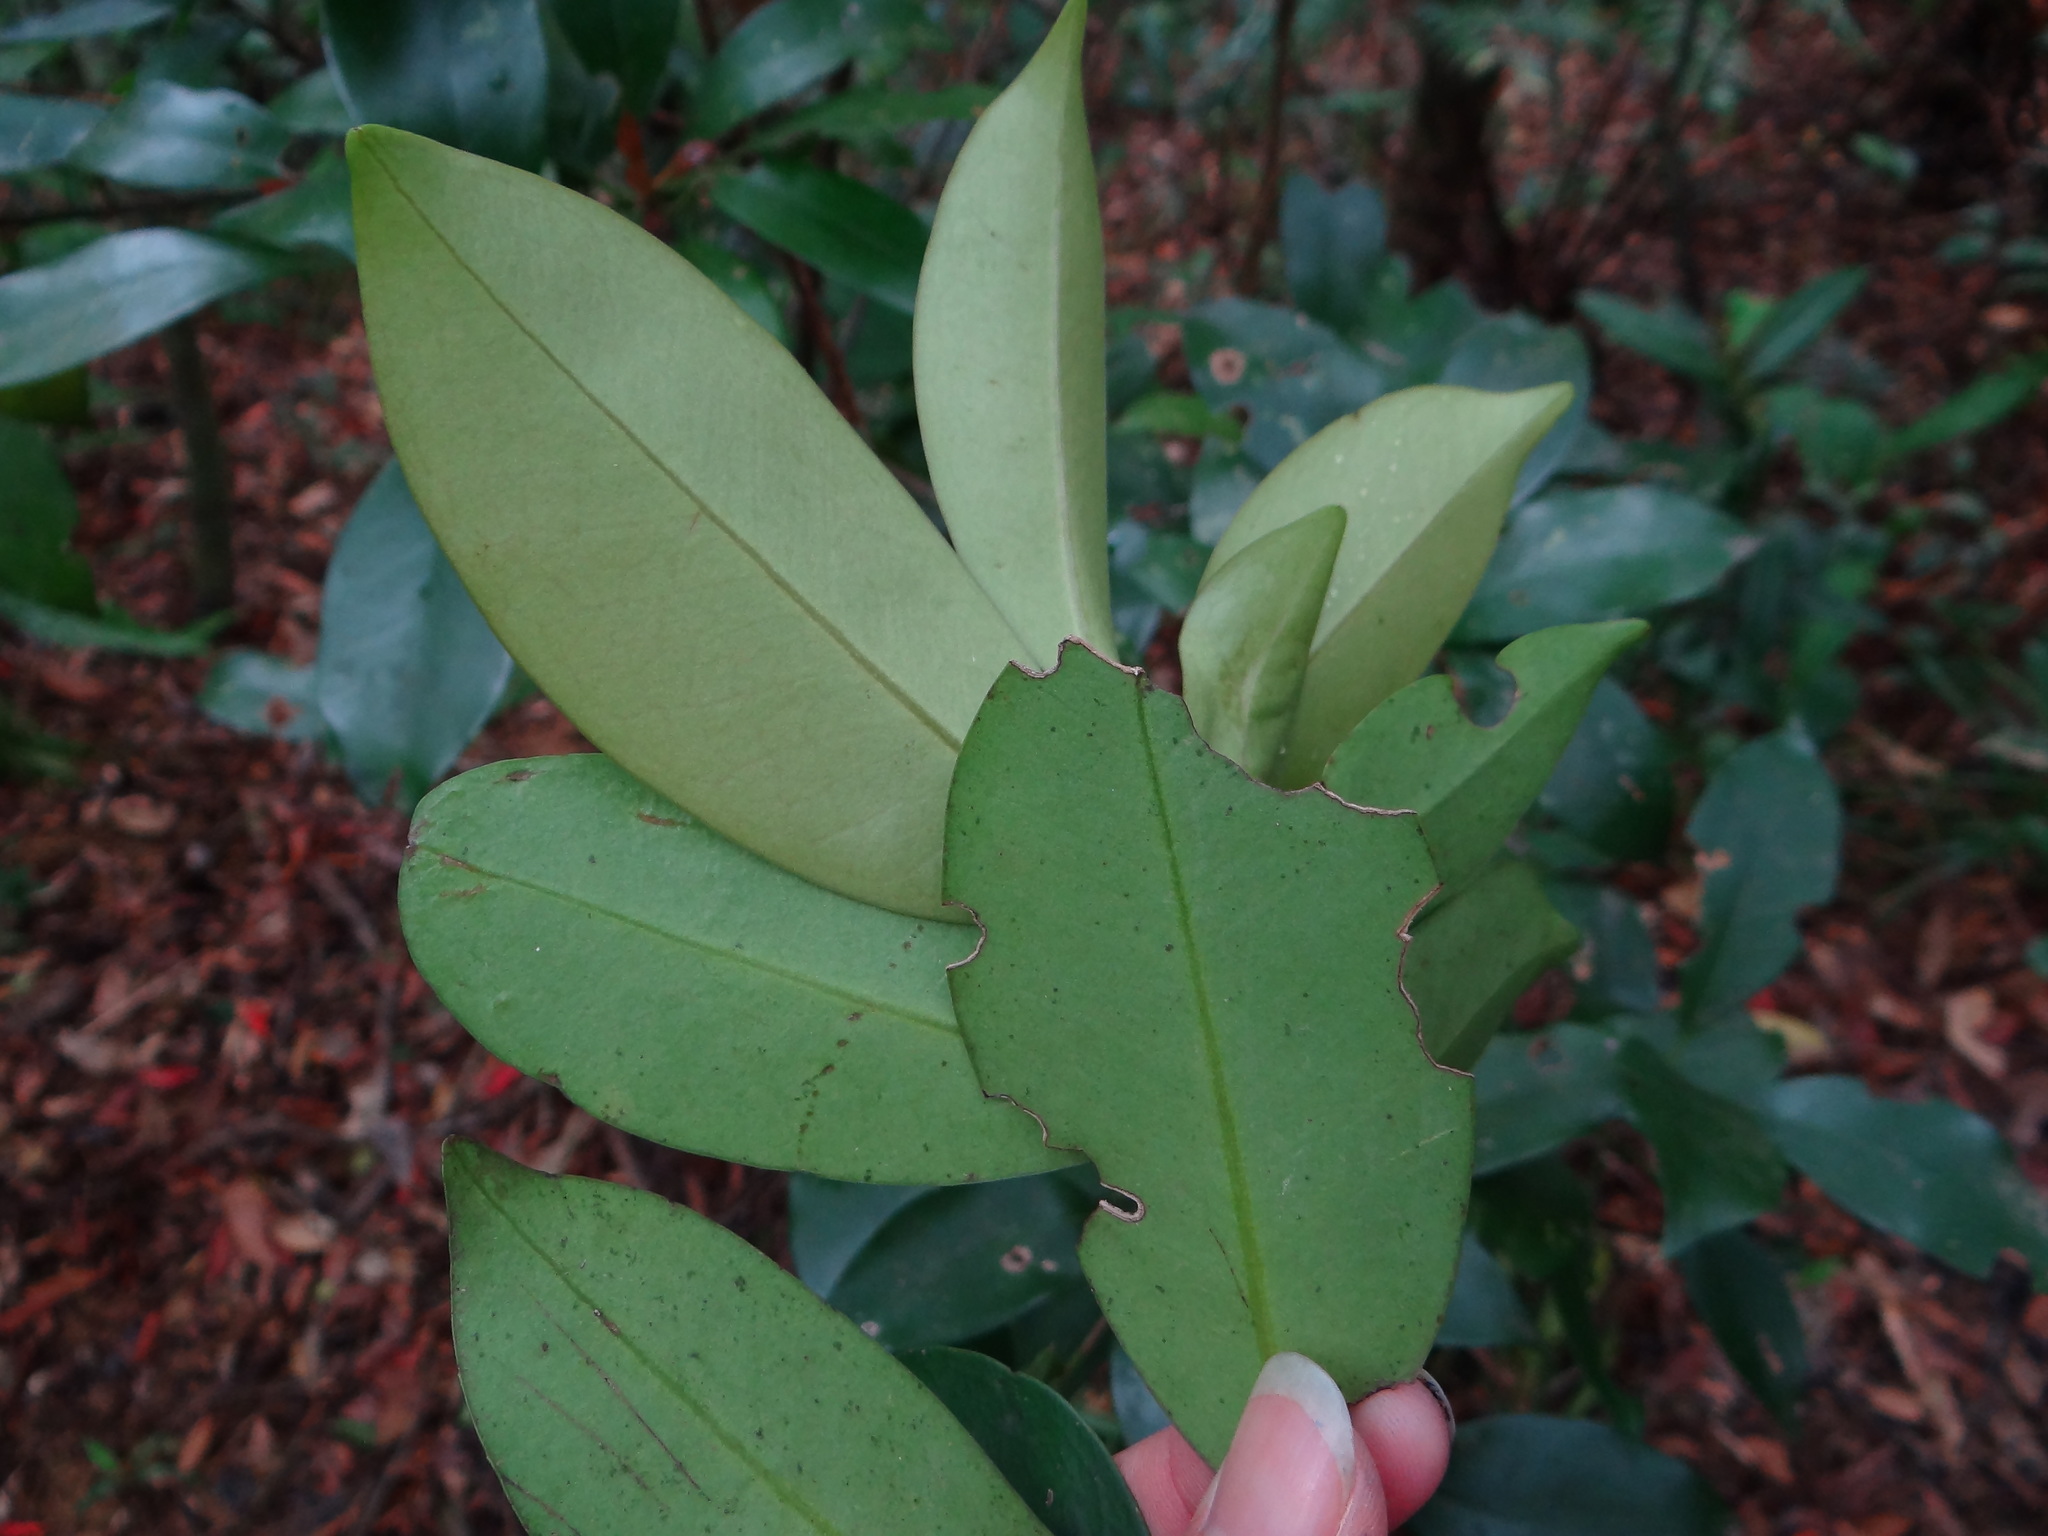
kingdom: Plantae
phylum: Tracheophyta
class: Magnoliopsida
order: Ericales
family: Pentaphylacaceae
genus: Cleyera
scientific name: Cleyera japonica
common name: Sakaki
